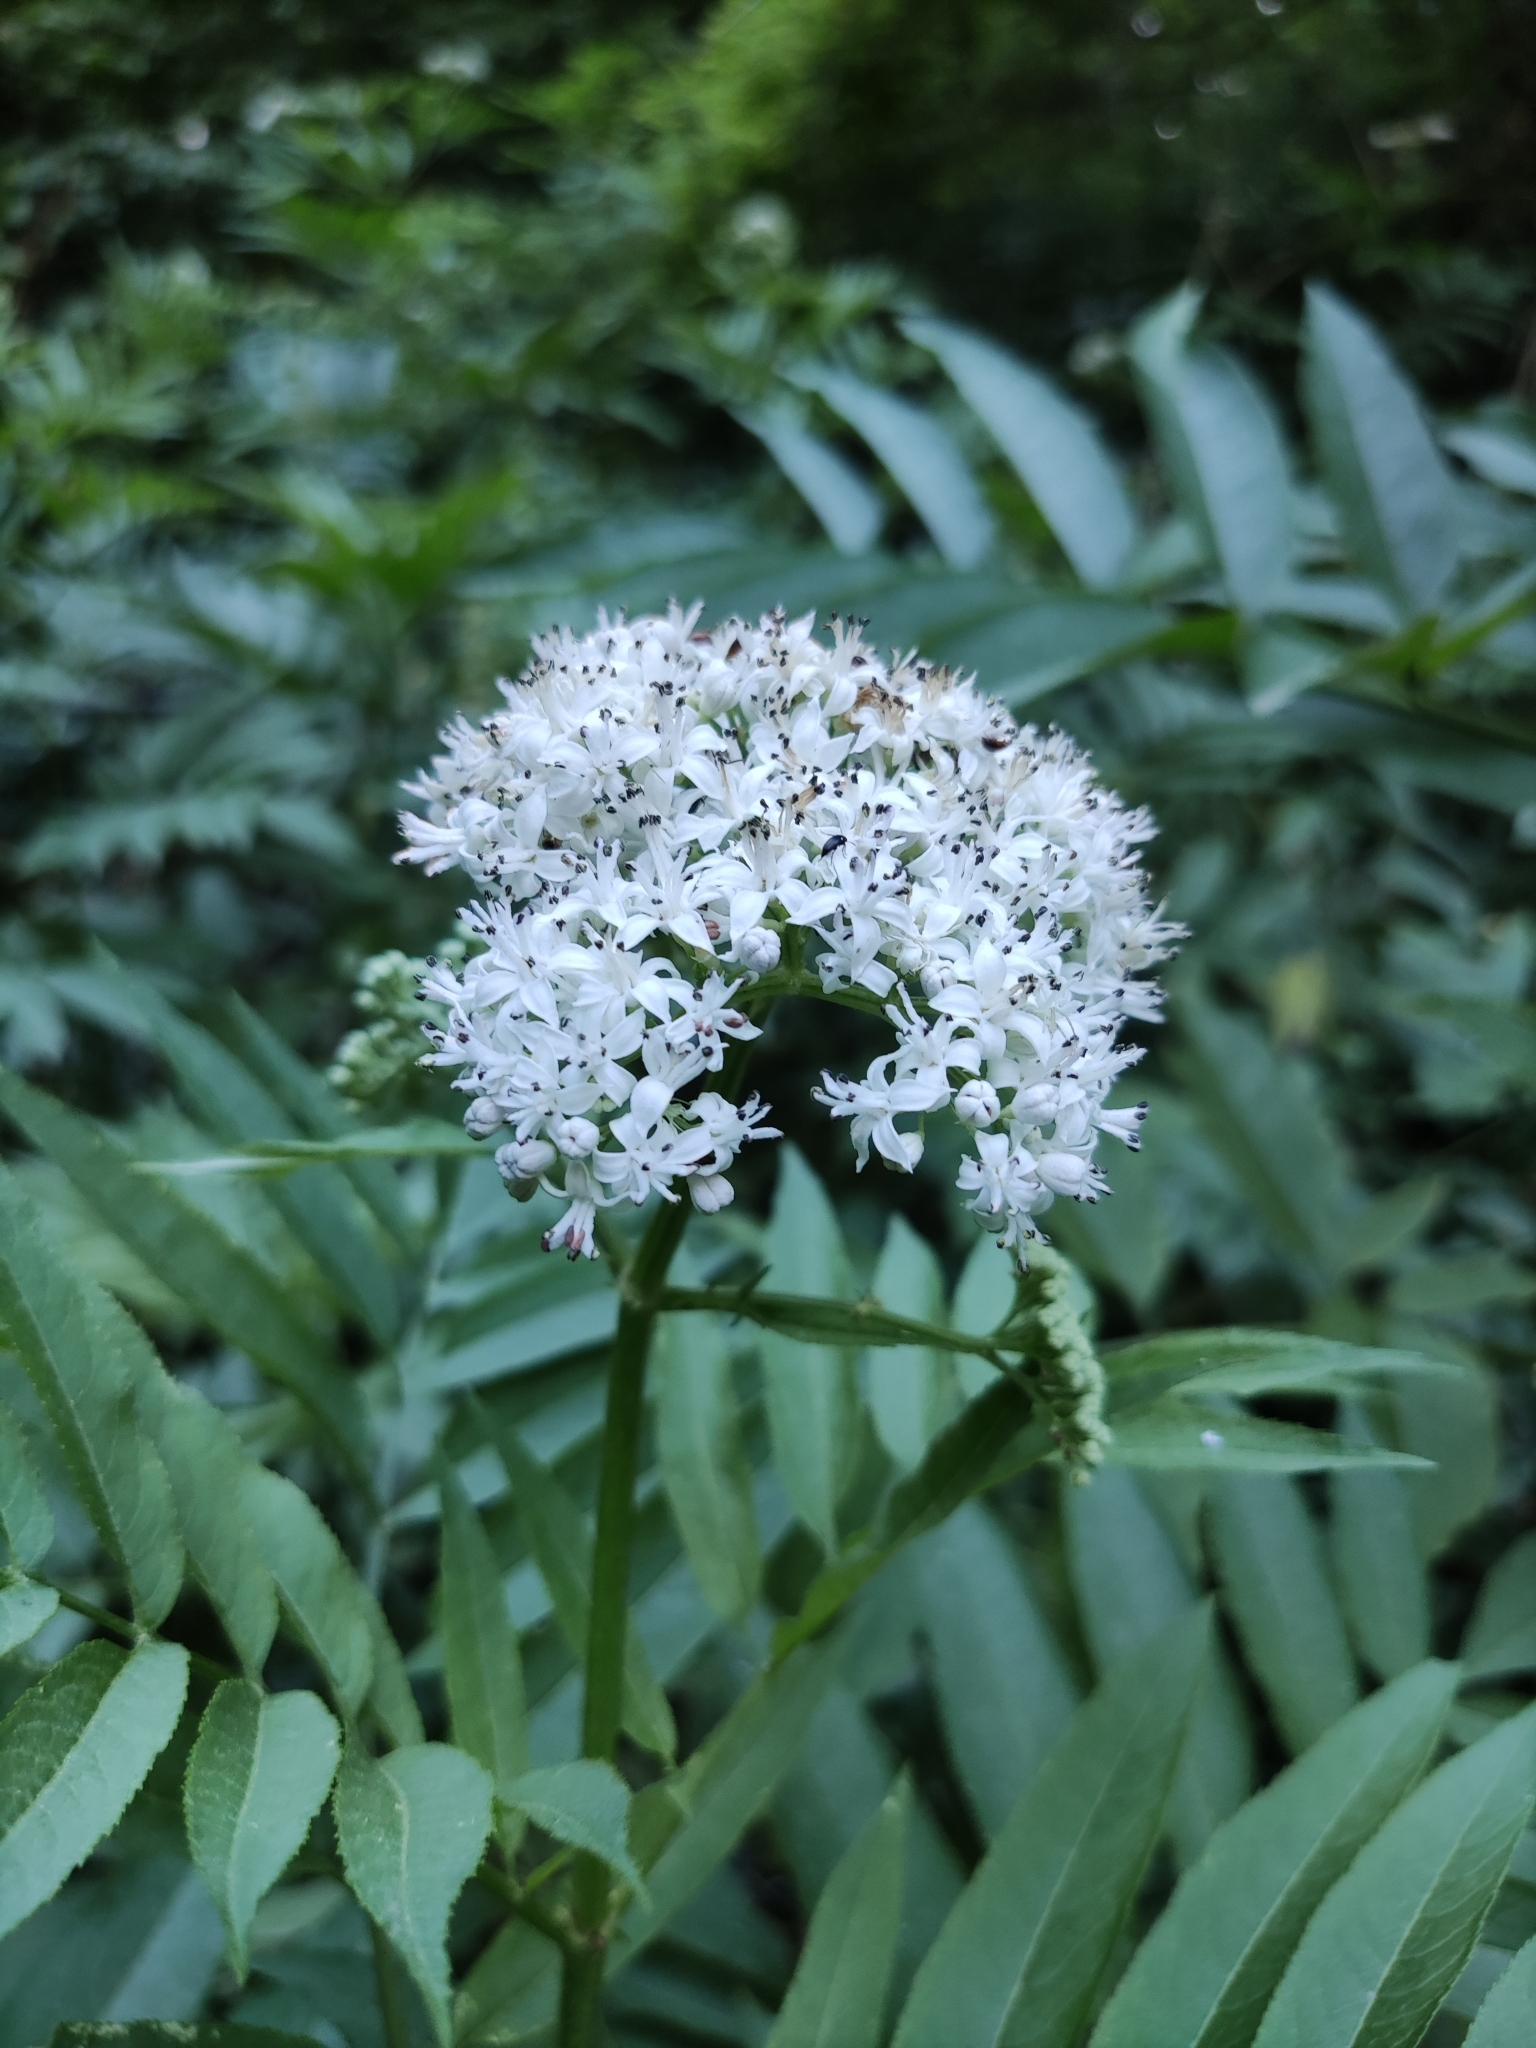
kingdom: Plantae
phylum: Tracheophyta
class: Magnoliopsida
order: Dipsacales
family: Viburnaceae
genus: Sambucus
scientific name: Sambucus ebulus
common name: Dwarf elder
